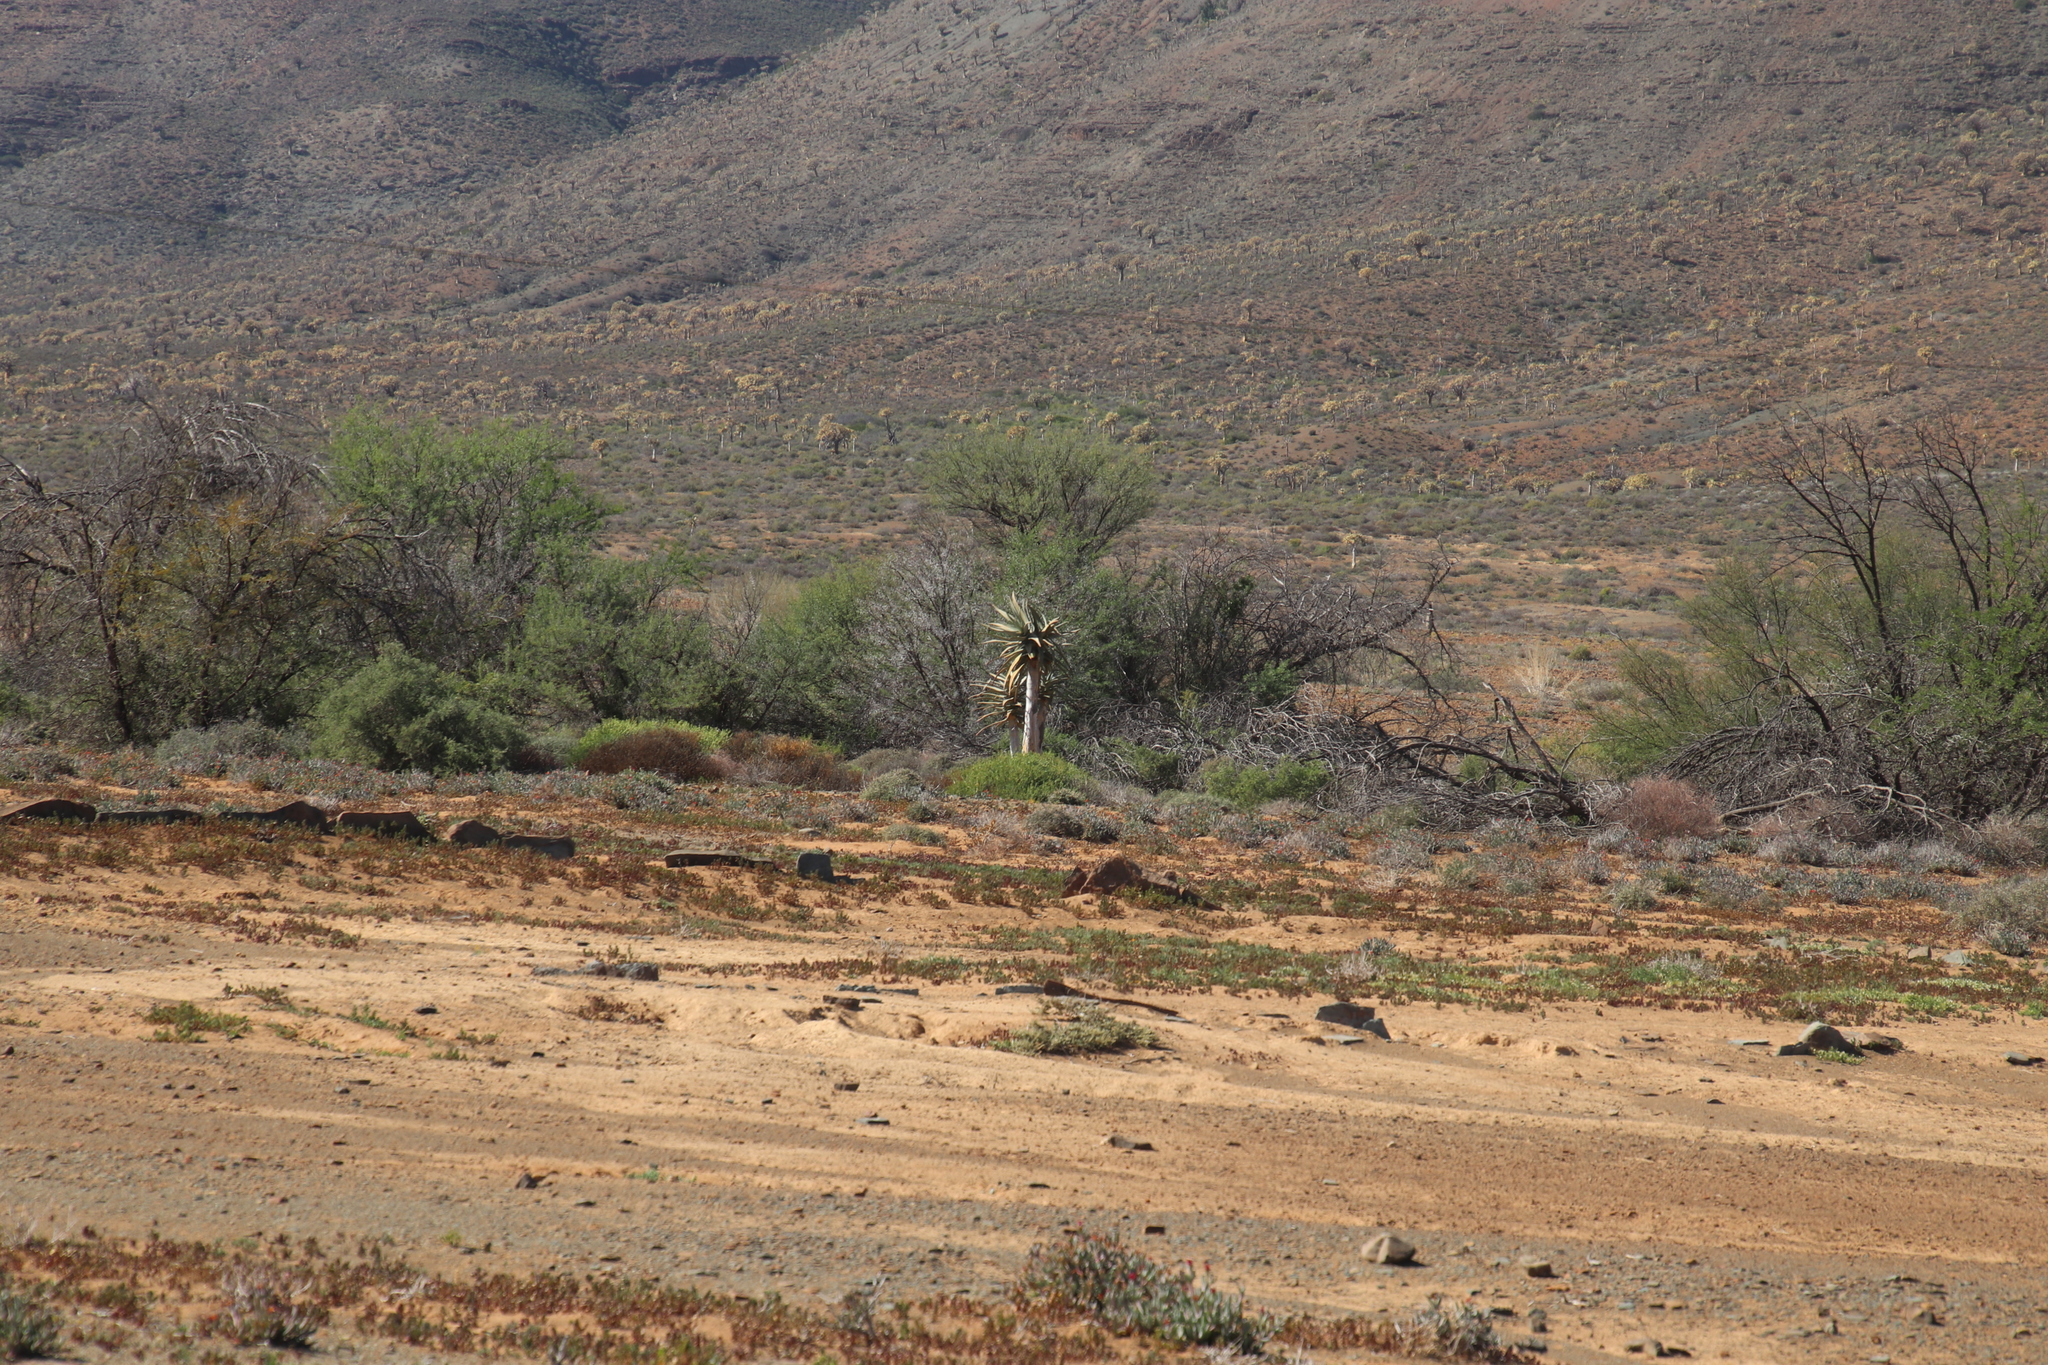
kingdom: Plantae
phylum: Tracheophyta
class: Magnoliopsida
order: Fabales
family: Fabaceae
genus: Vachellia
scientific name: Vachellia karroo
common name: Sweet thorn
